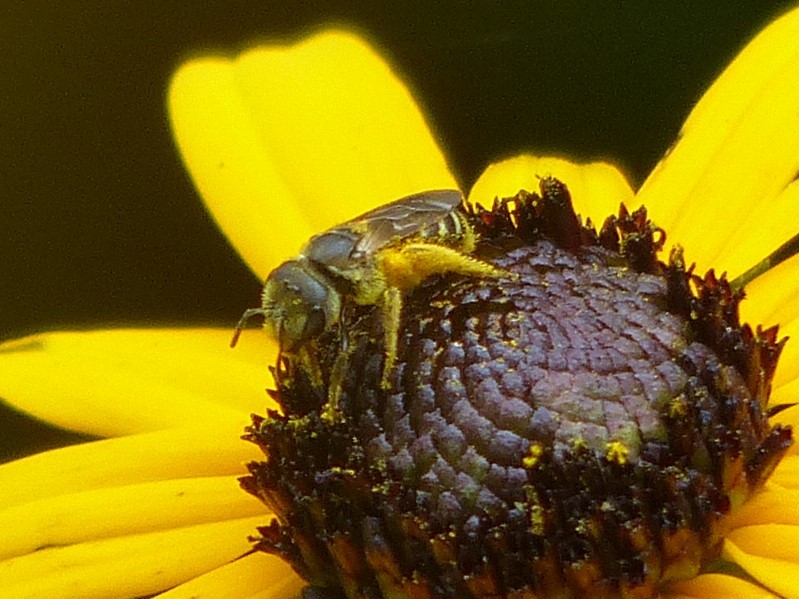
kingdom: Animalia
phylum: Arthropoda
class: Insecta
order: Hymenoptera
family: Halictidae
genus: Halictus
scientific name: Halictus ligatus
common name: Ligated furrow bee
